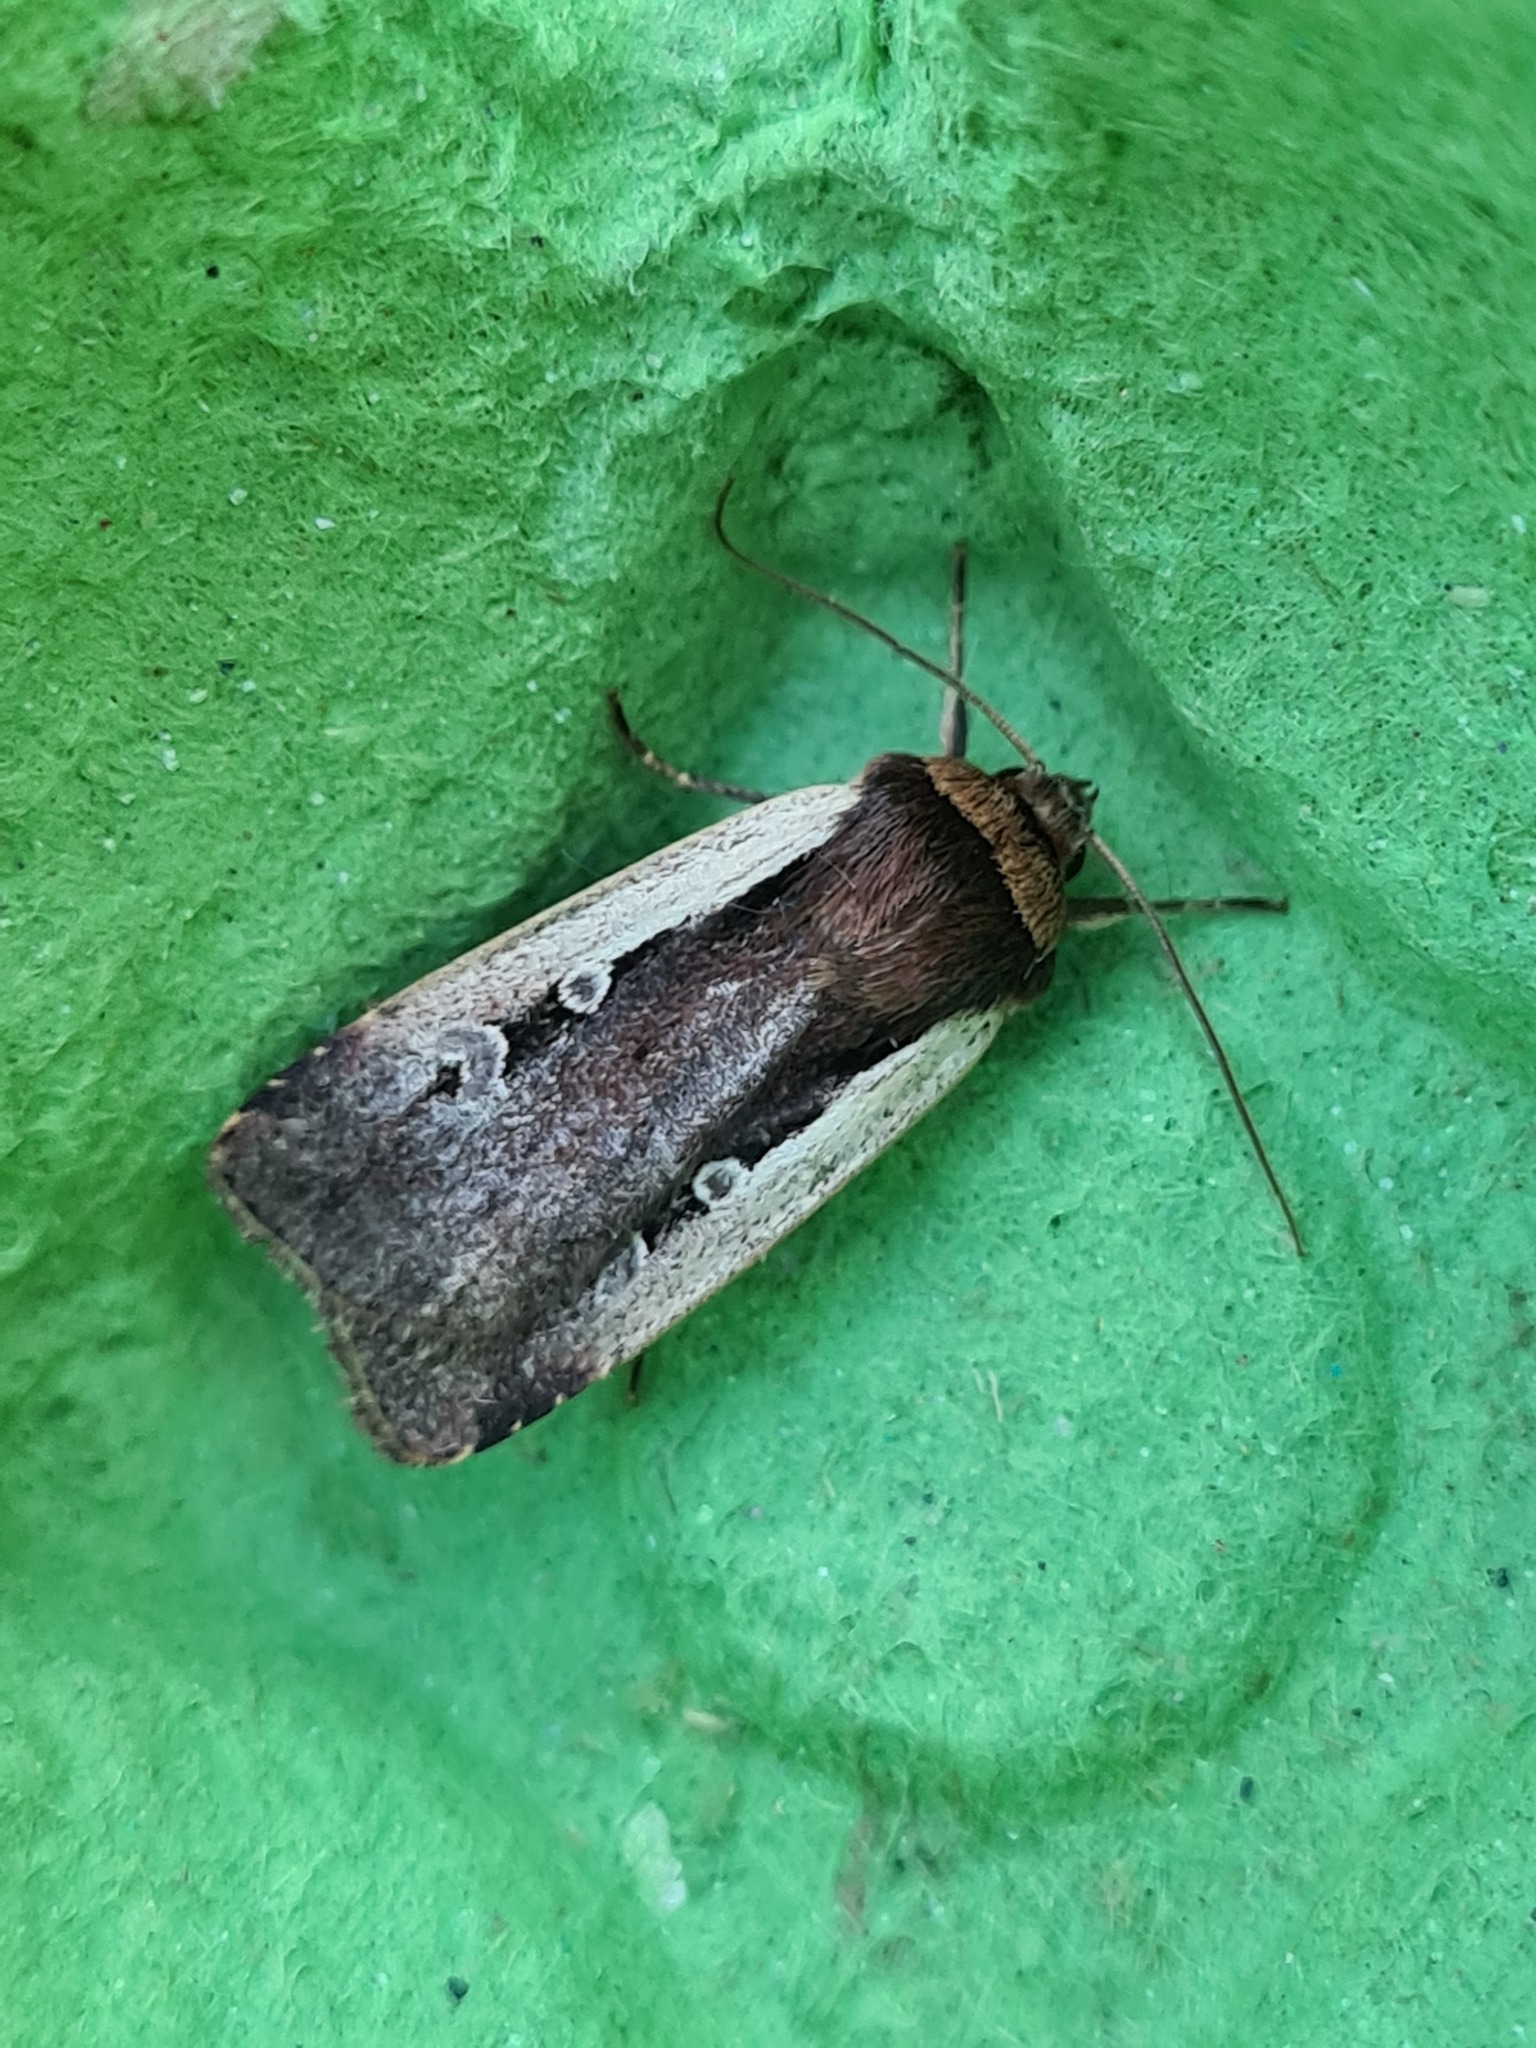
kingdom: Animalia
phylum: Arthropoda
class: Insecta
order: Lepidoptera
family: Noctuidae
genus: Ochropleura
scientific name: Ochropleura plecta
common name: Flame shoulder
